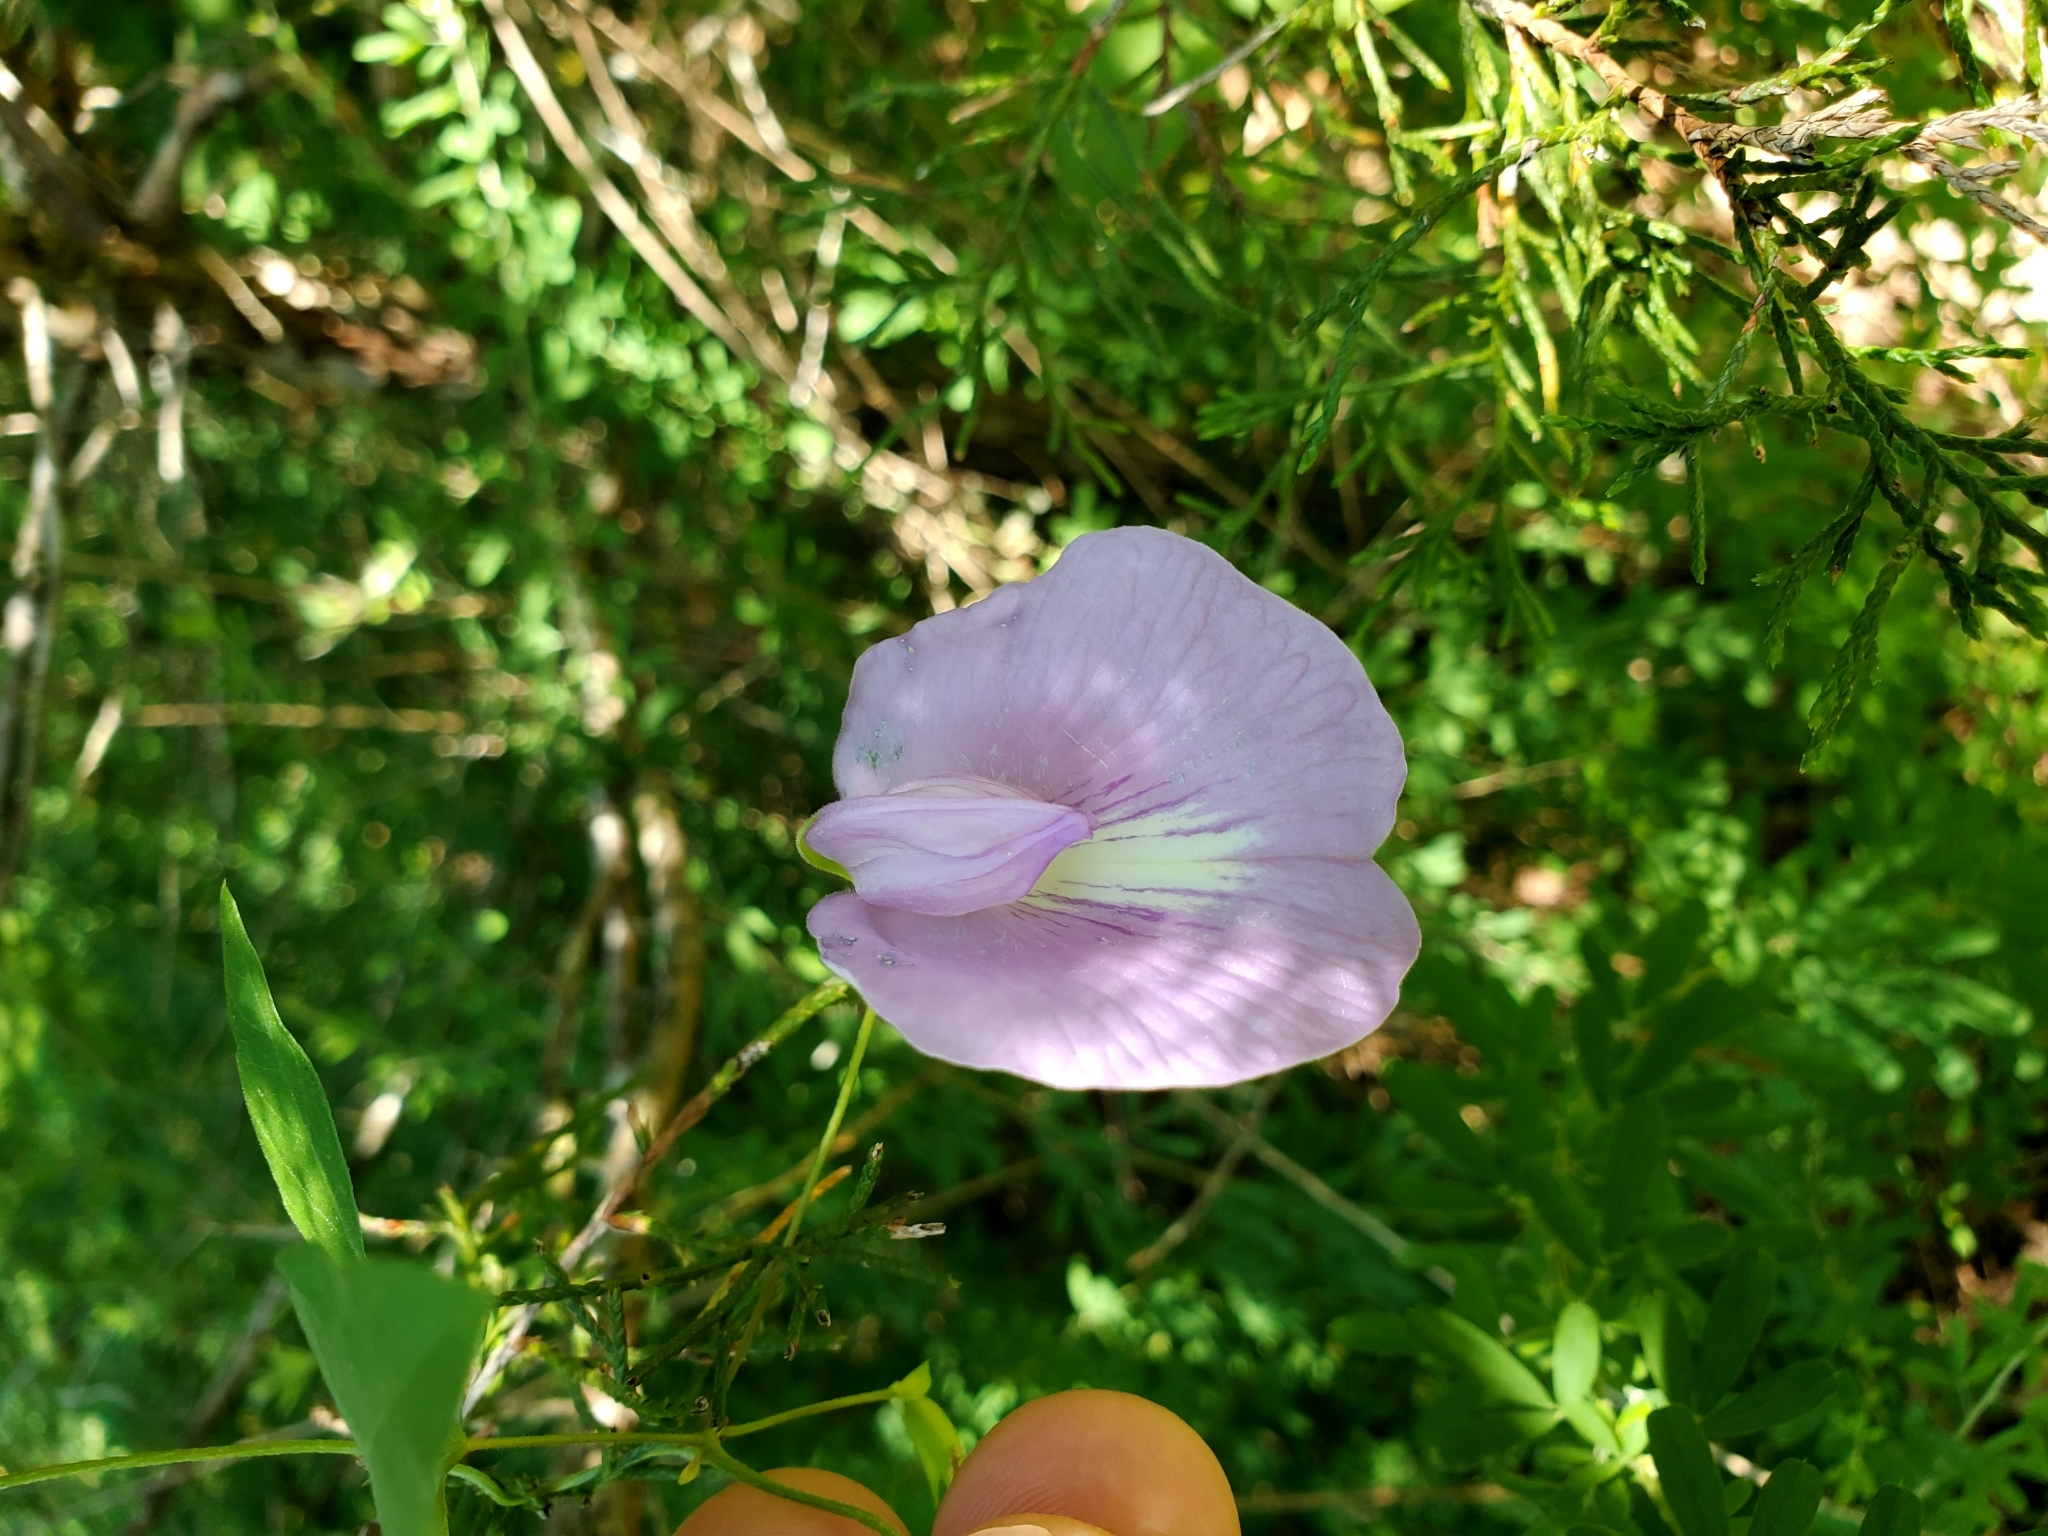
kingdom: Plantae
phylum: Tracheophyta
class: Magnoliopsida
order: Fabales
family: Fabaceae
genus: Centrosema
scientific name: Centrosema virginianum
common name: Butterfly-pea
